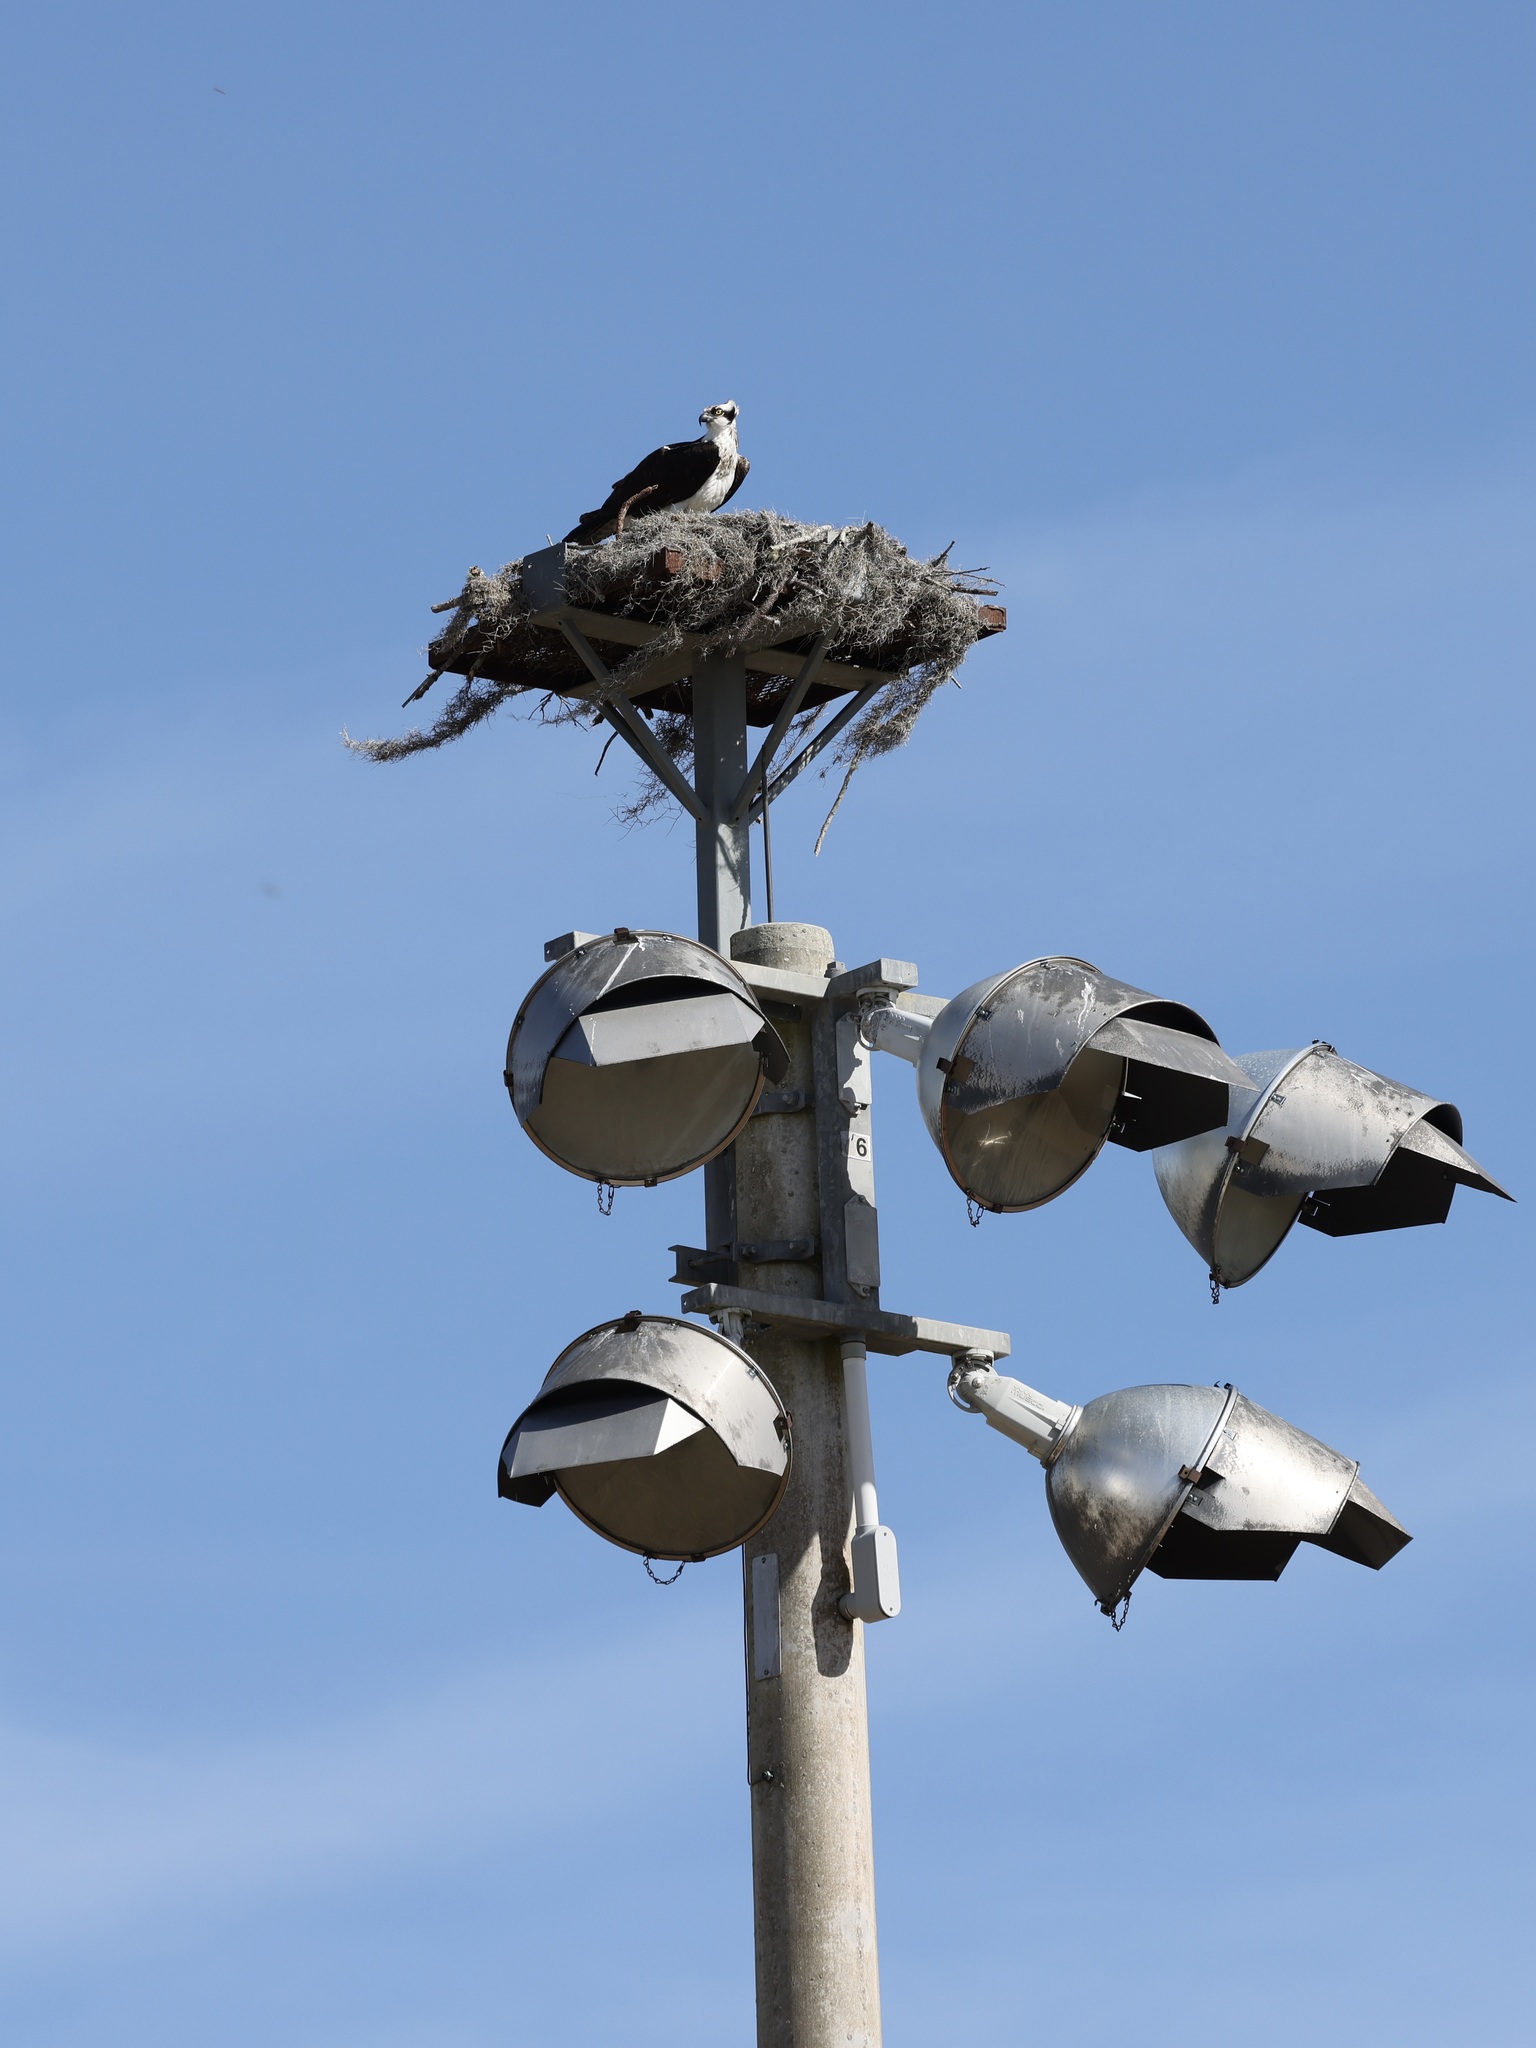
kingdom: Animalia
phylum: Chordata
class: Aves
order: Accipitriformes
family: Pandionidae
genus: Pandion
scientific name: Pandion haliaetus
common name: Osprey
